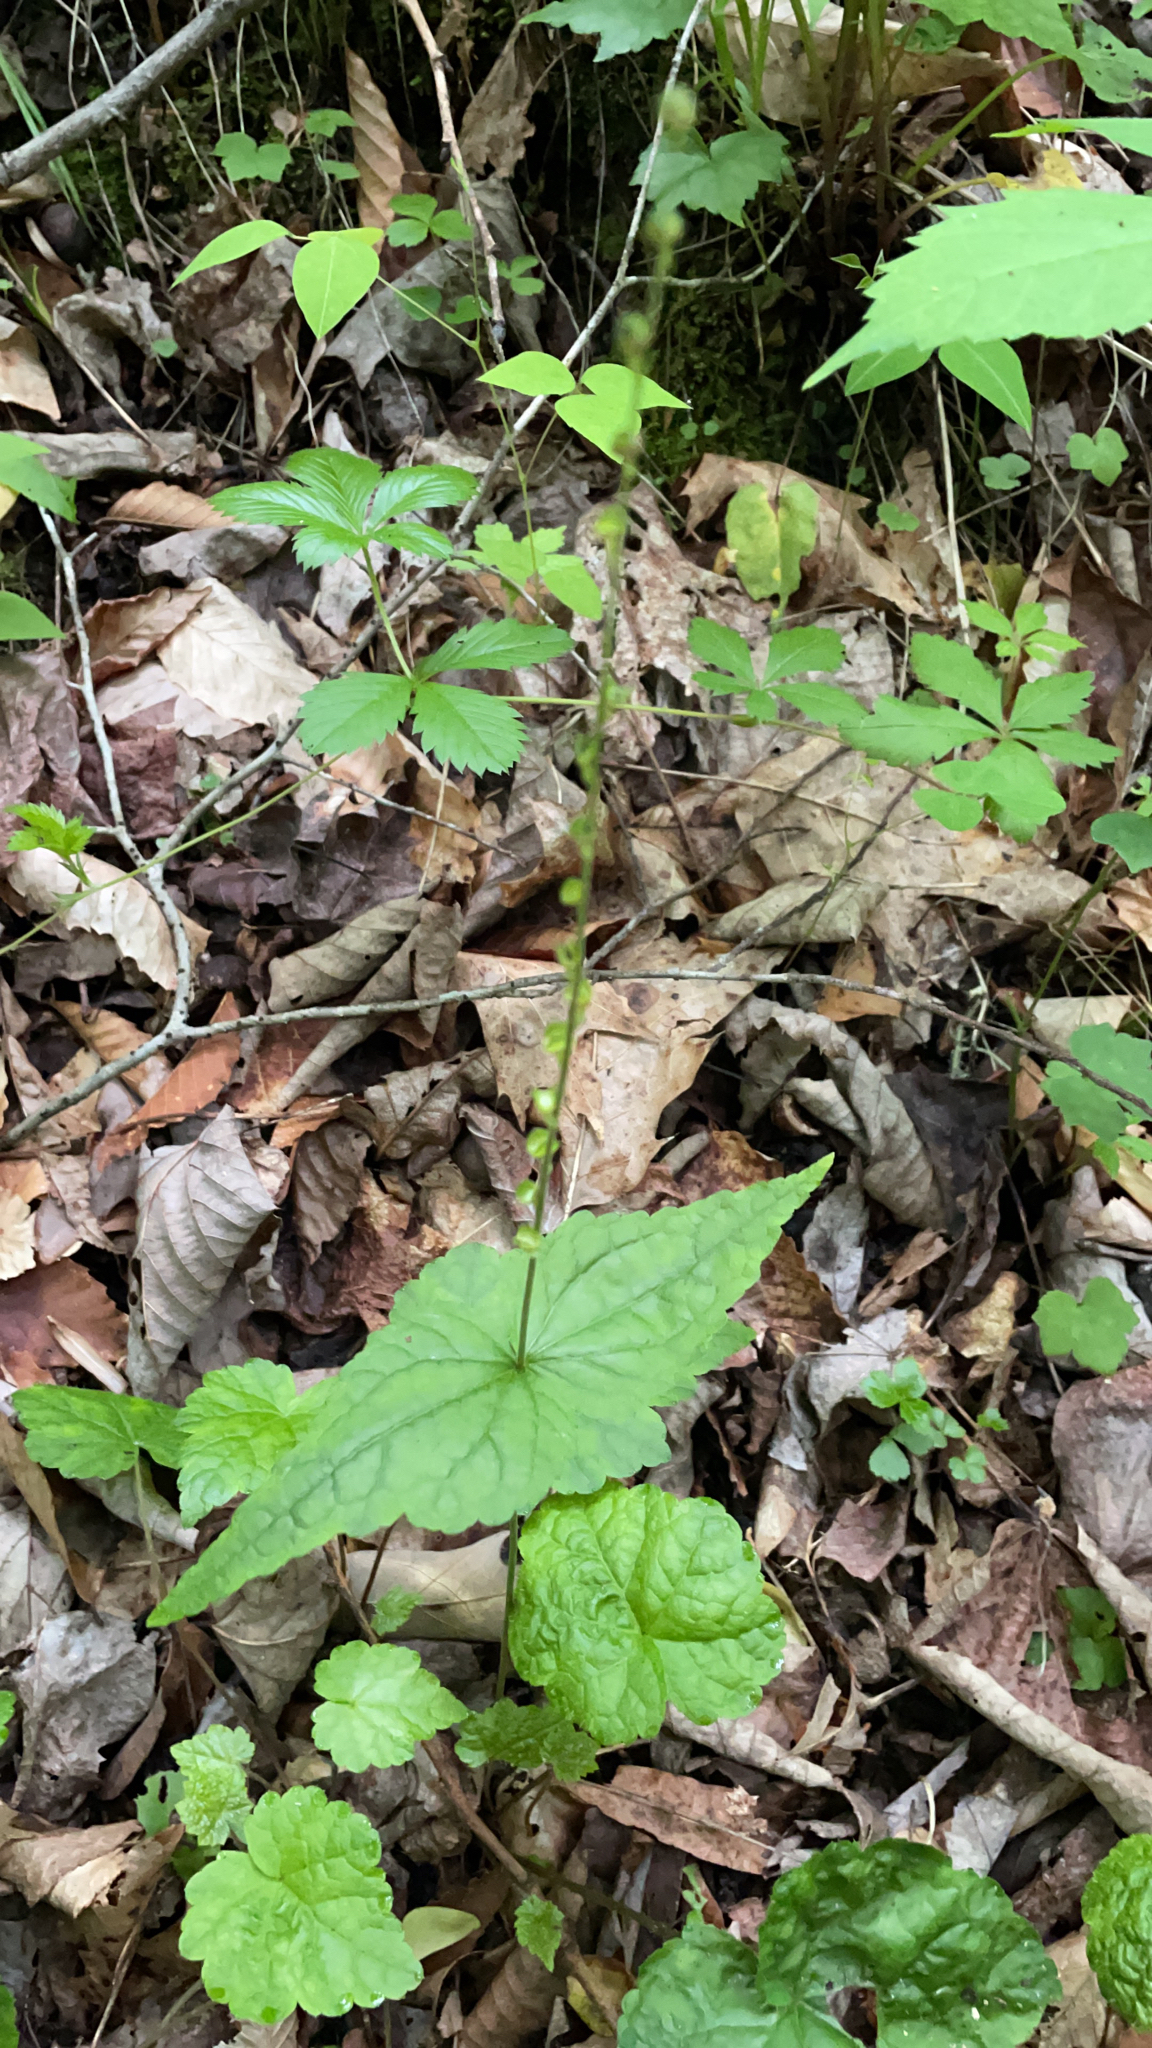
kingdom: Plantae
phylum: Tracheophyta
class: Magnoliopsida
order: Saxifragales
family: Saxifragaceae
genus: Mitella
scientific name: Mitella diphylla
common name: Coolwort
